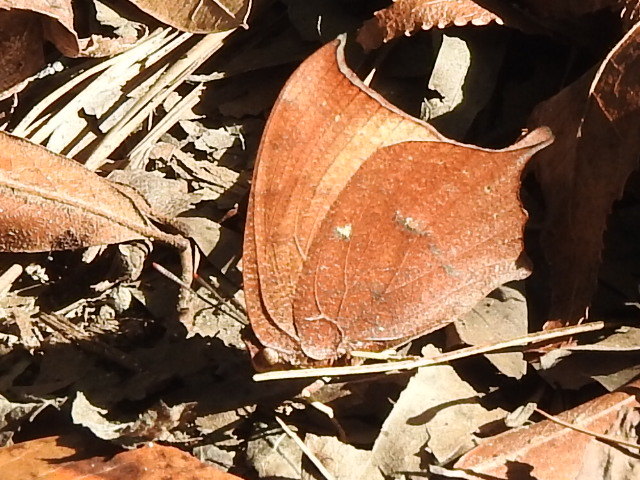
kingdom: Animalia
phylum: Arthropoda
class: Insecta
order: Lepidoptera
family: Nymphalidae
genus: Anaea
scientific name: Anaea andria
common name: Goatweed leafwing
